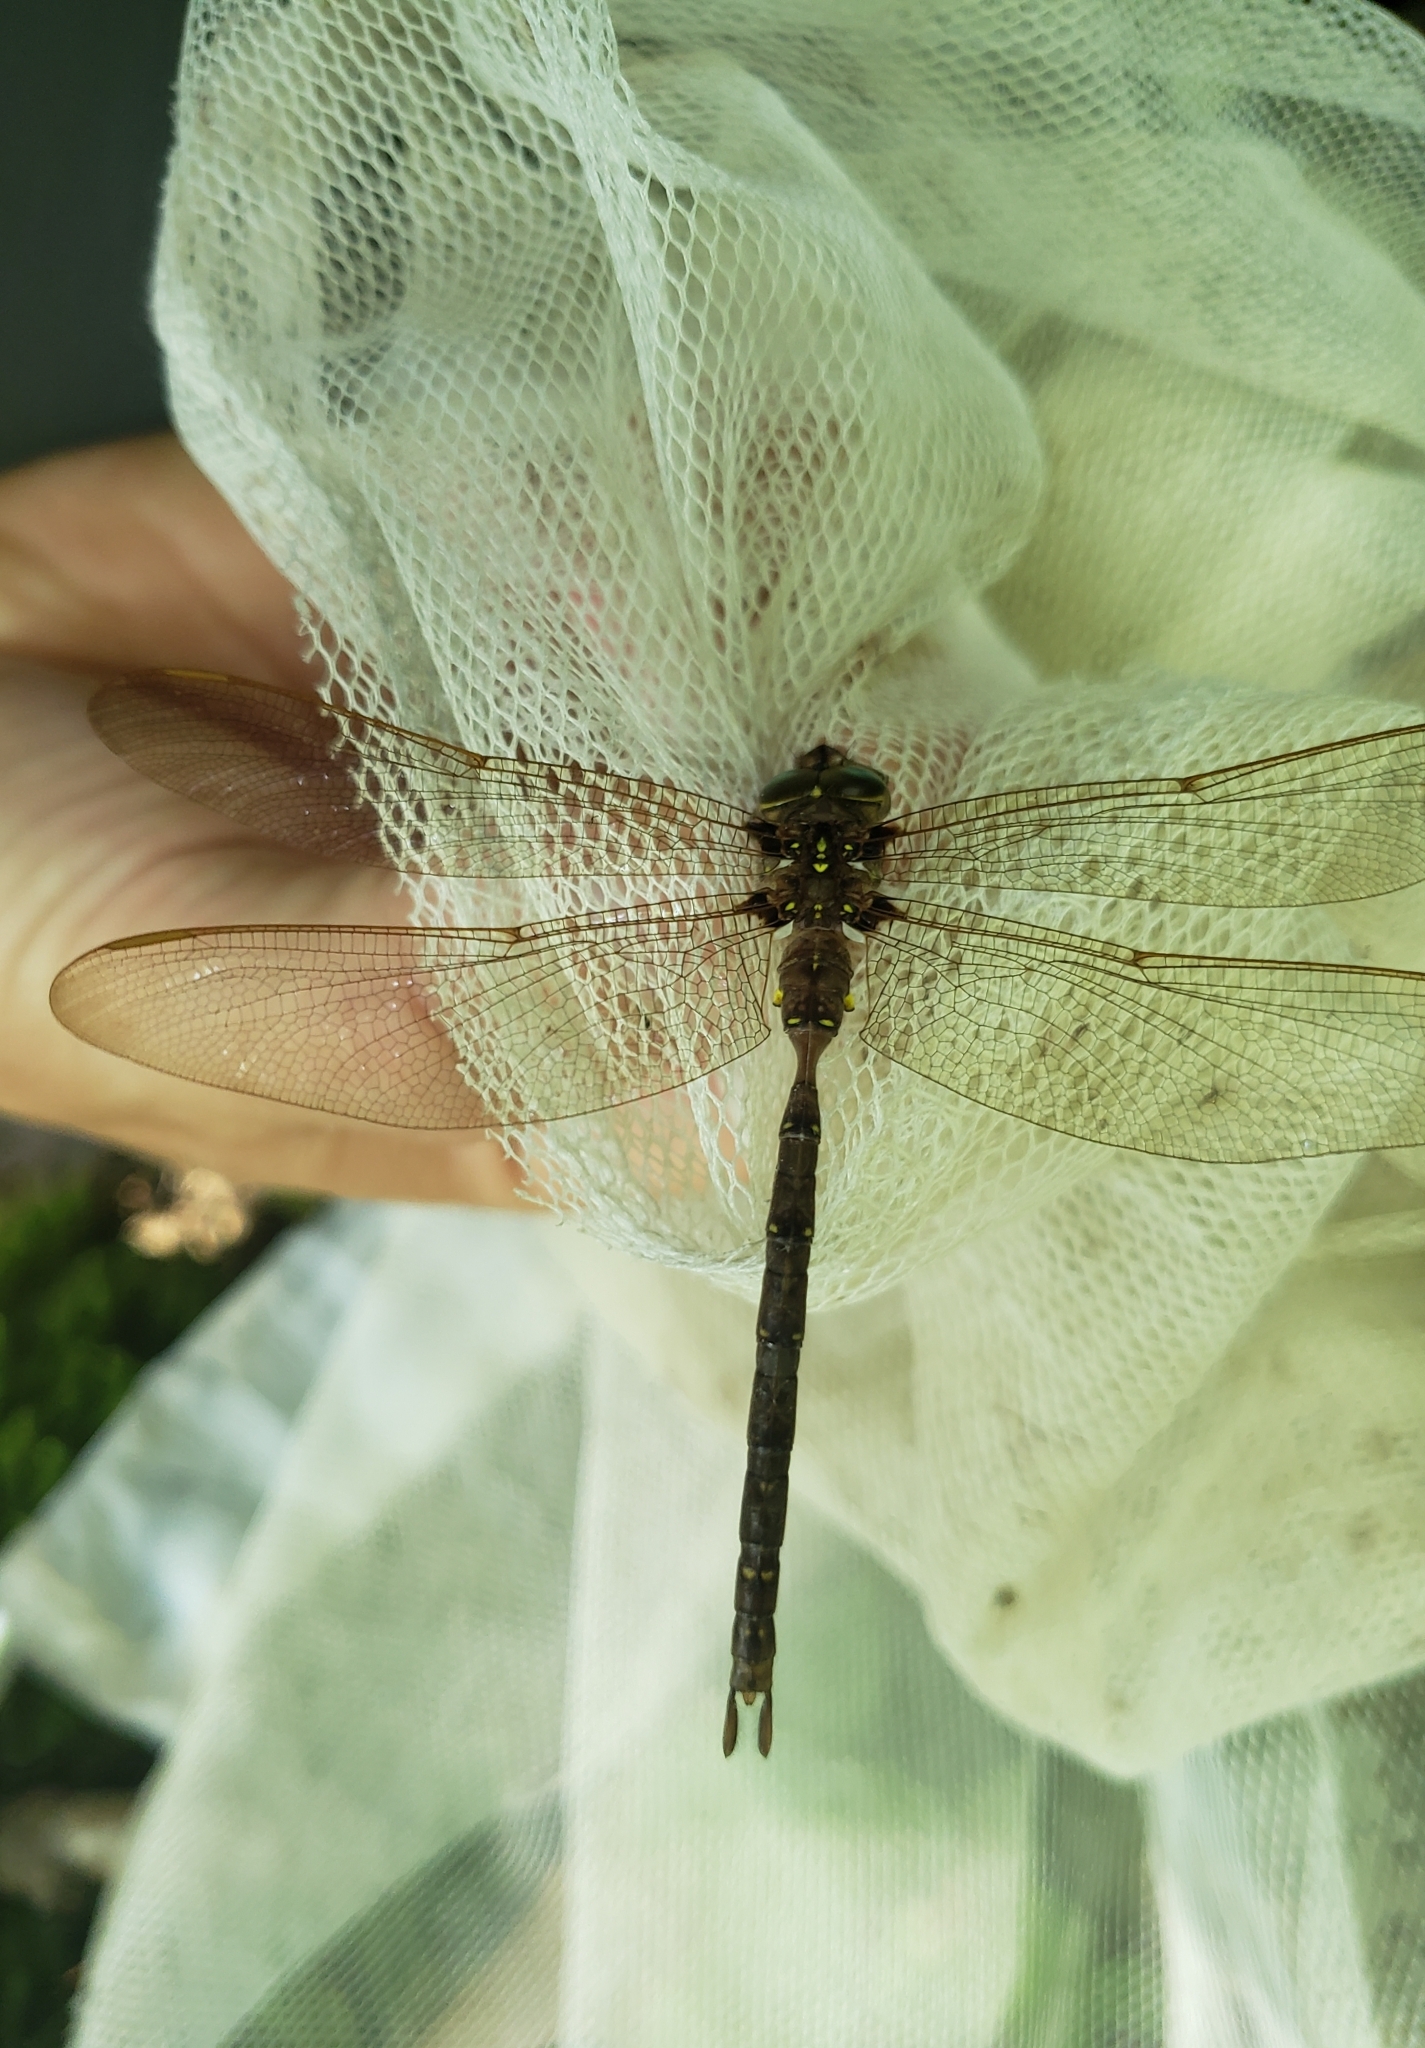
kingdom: Animalia
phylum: Arthropoda
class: Insecta
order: Odonata
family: Aeshnidae
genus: Boyeria
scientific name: Boyeria vinosa
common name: Fawn darner
